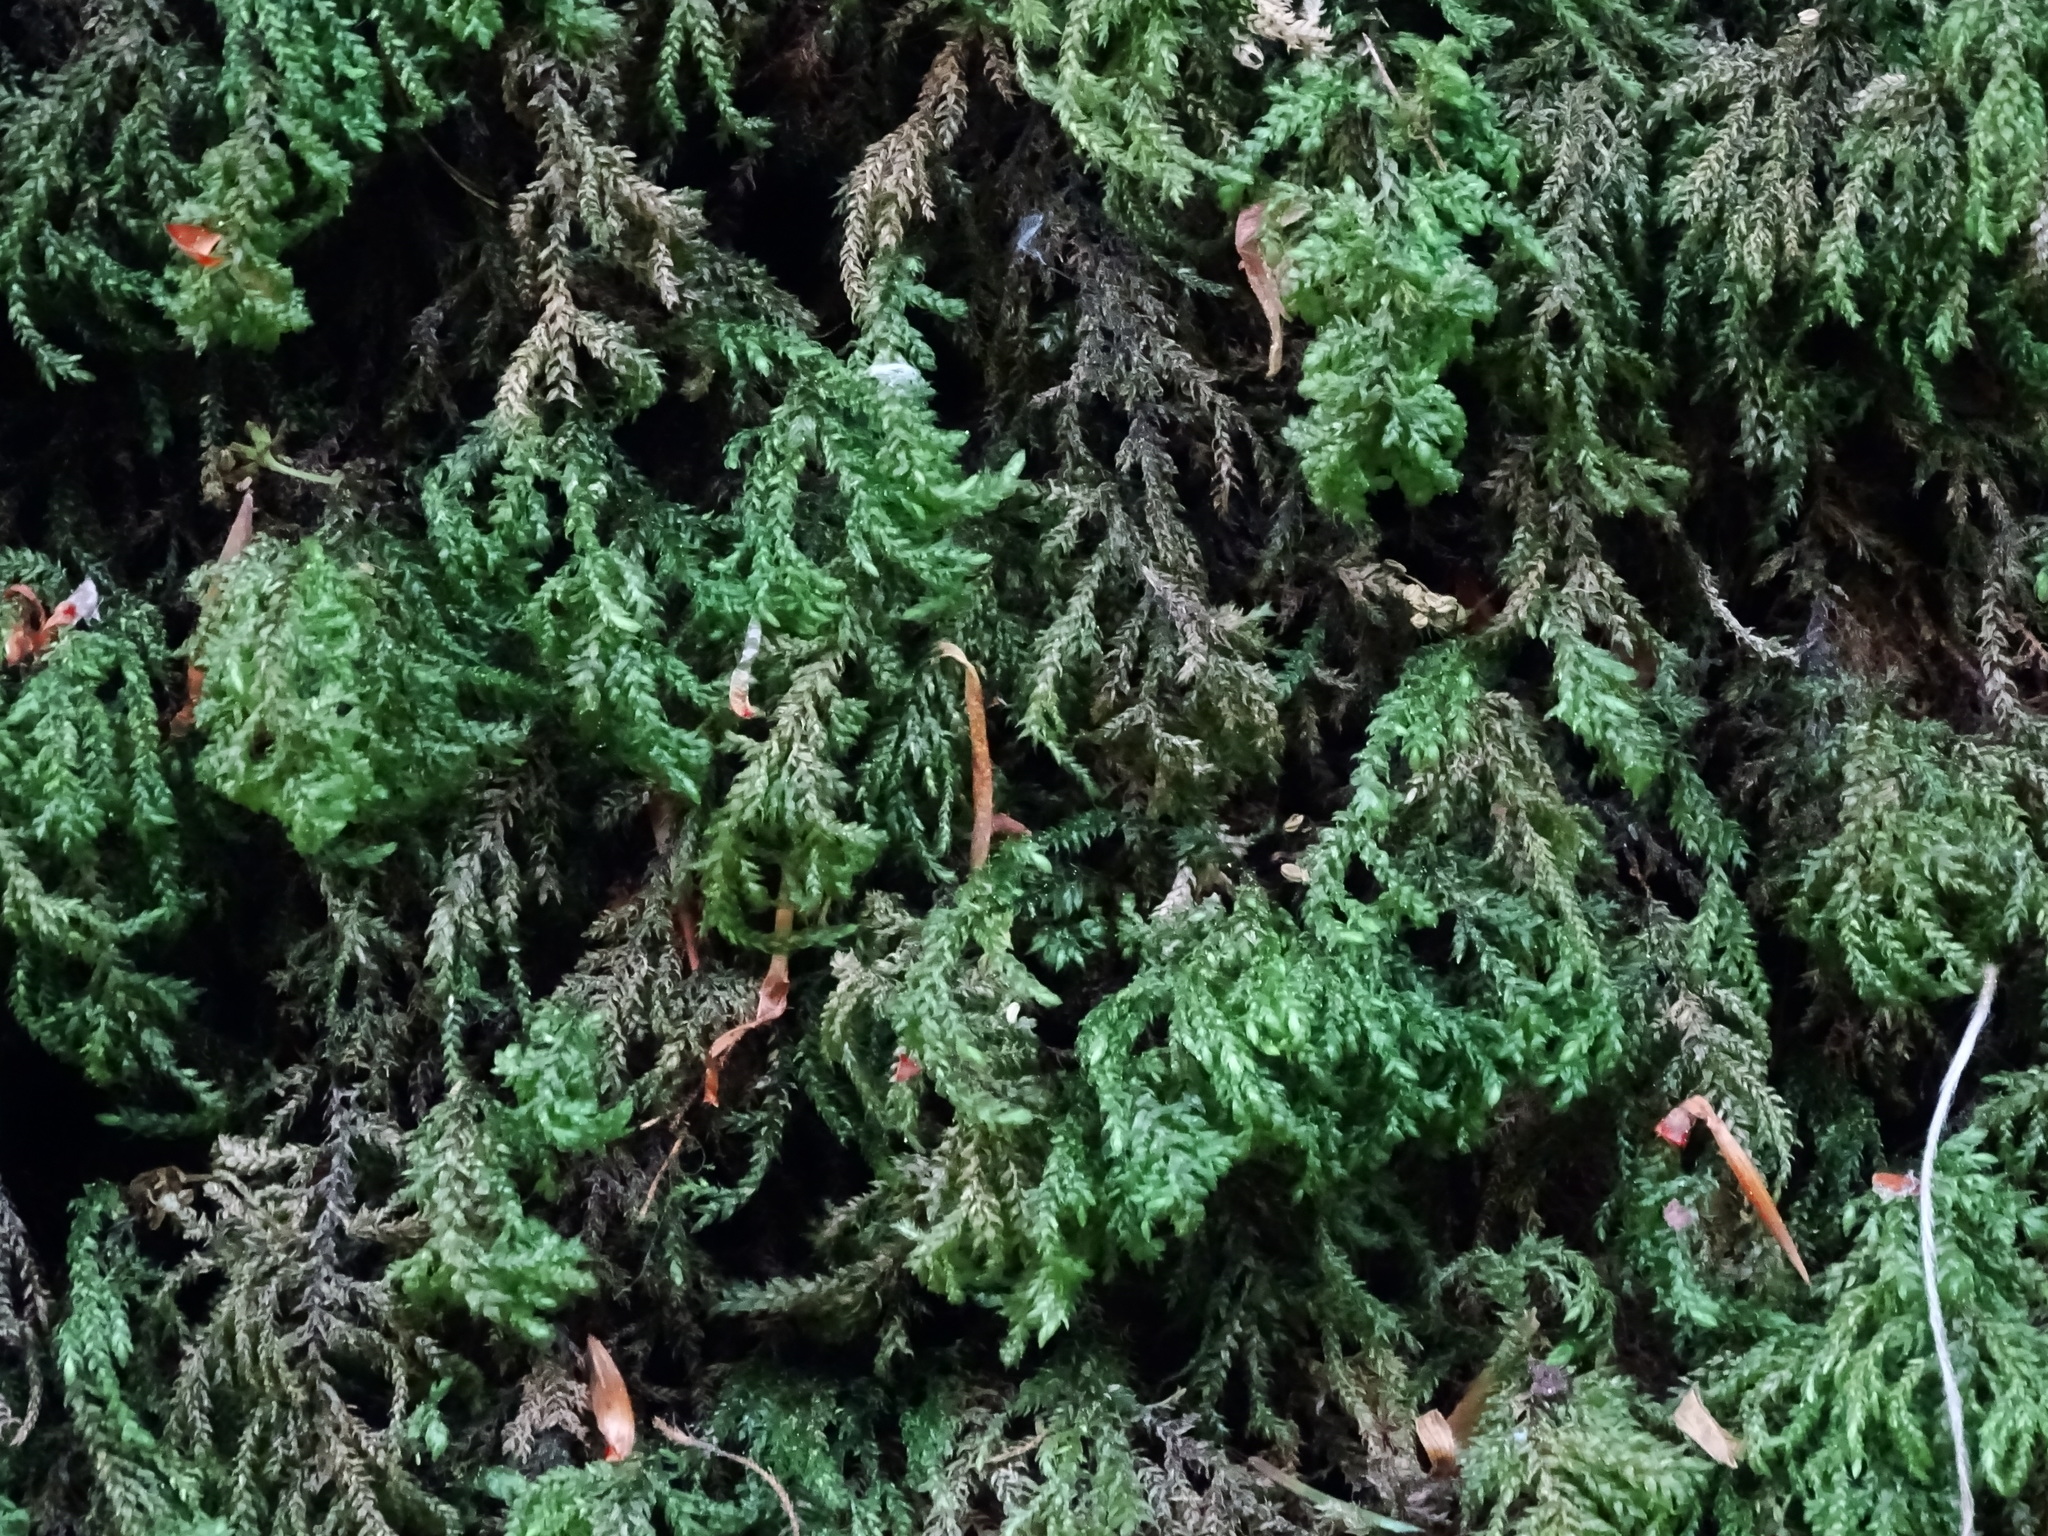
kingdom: Plantae
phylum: Bryophyta
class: Bryopsida
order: Hypnales
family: Neckeraceae
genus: Thamnobryum
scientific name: Thamnobryum alopecurum
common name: Fox-tail feather-moss
